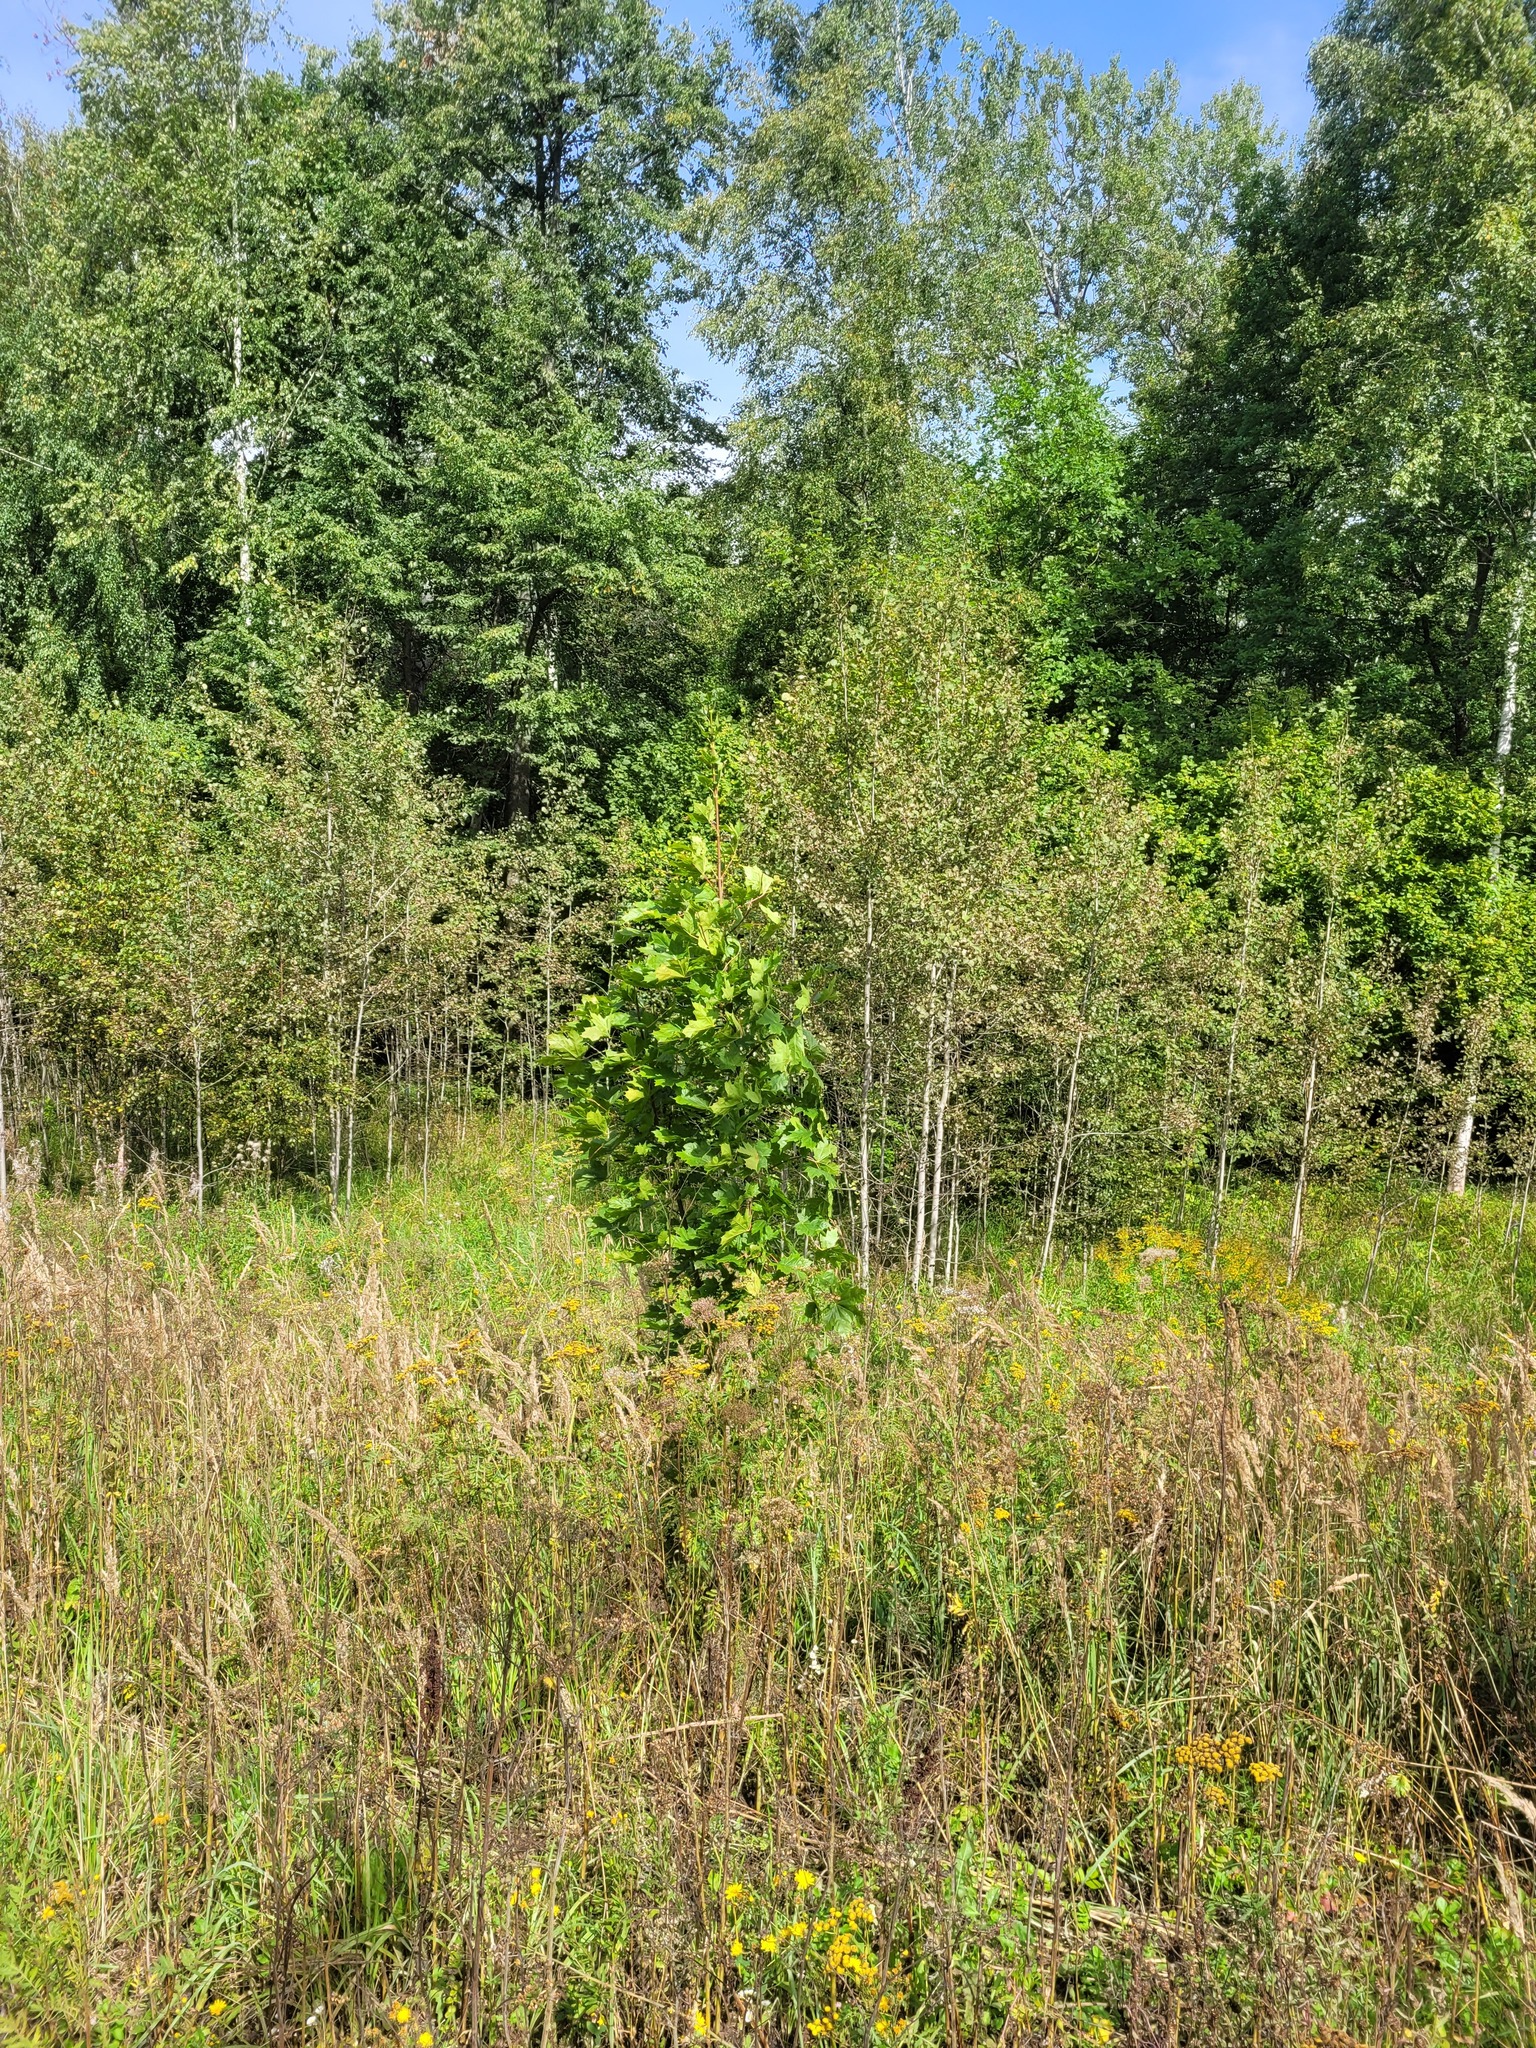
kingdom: Plantae
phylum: Tracheophyta
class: Magnoliopsida
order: Sapindales
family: Sapindaceae
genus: Acer
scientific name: Acer platanoides
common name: Norway maple
